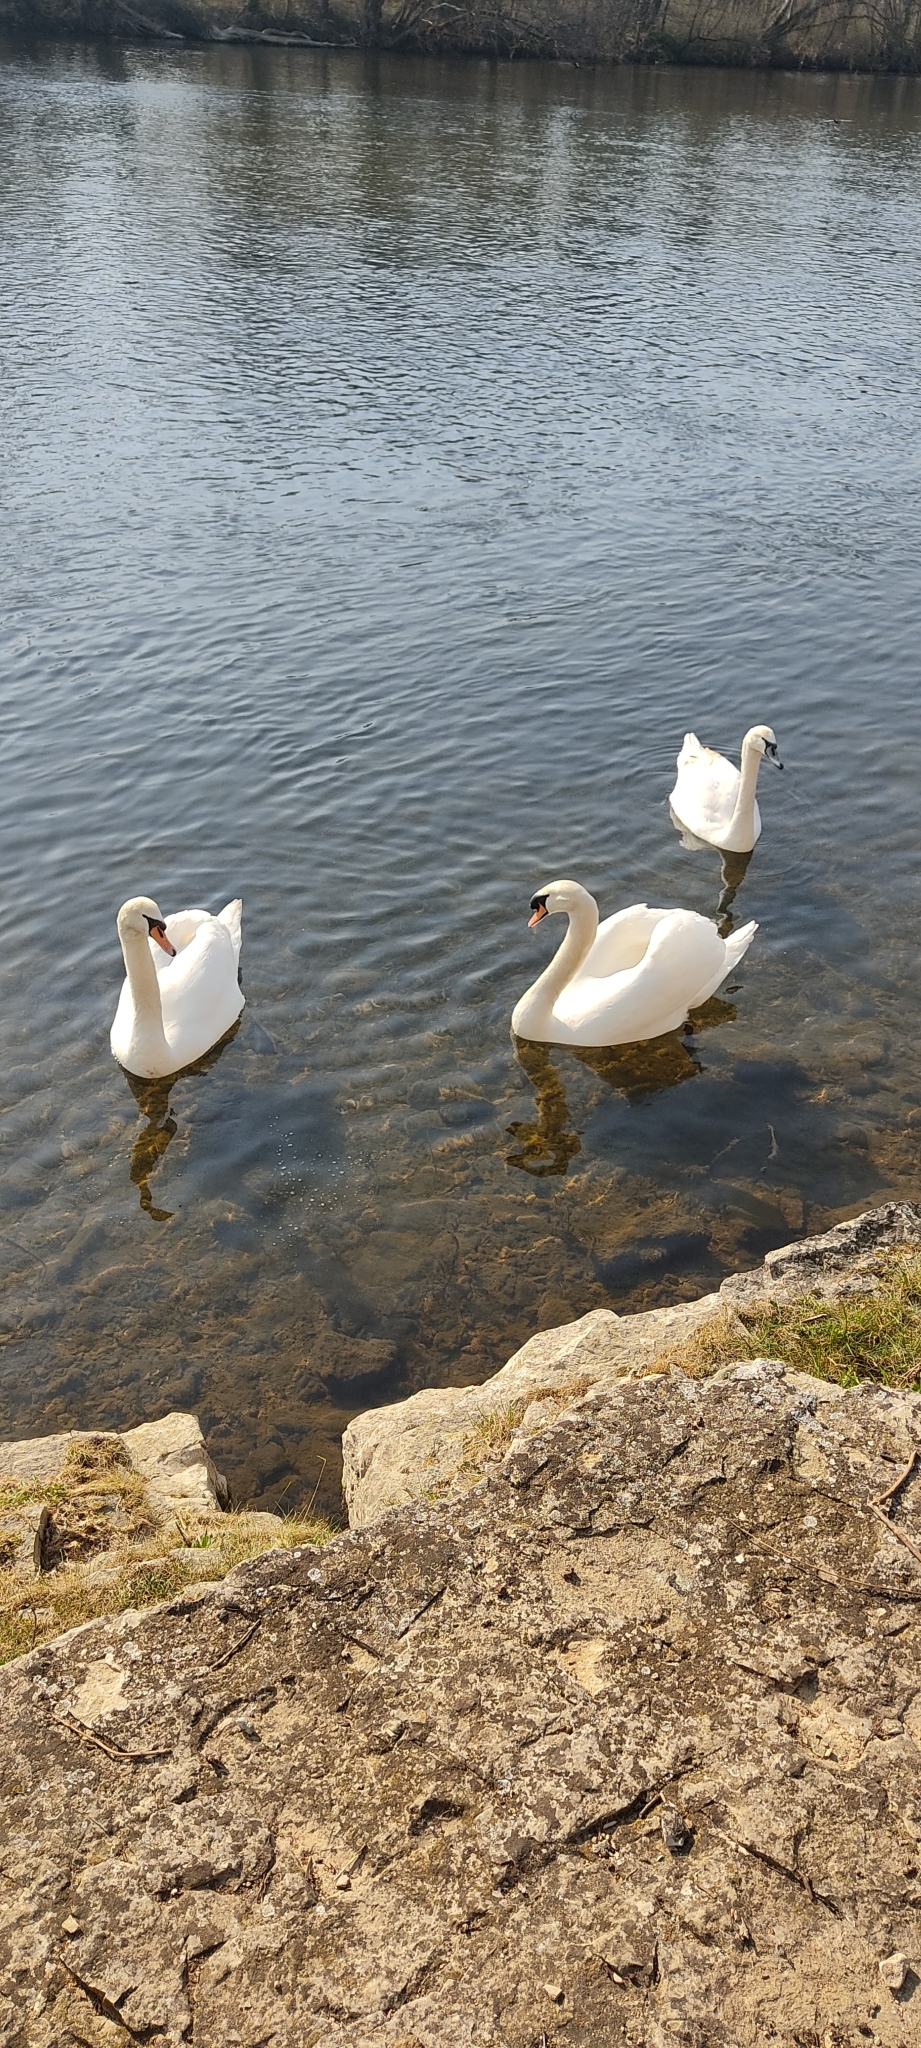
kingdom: Animalia
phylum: Chordata
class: Aves
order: Anseriformes
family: Anatidae
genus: Cygnus
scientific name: Cygnus olor
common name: Mute swan
